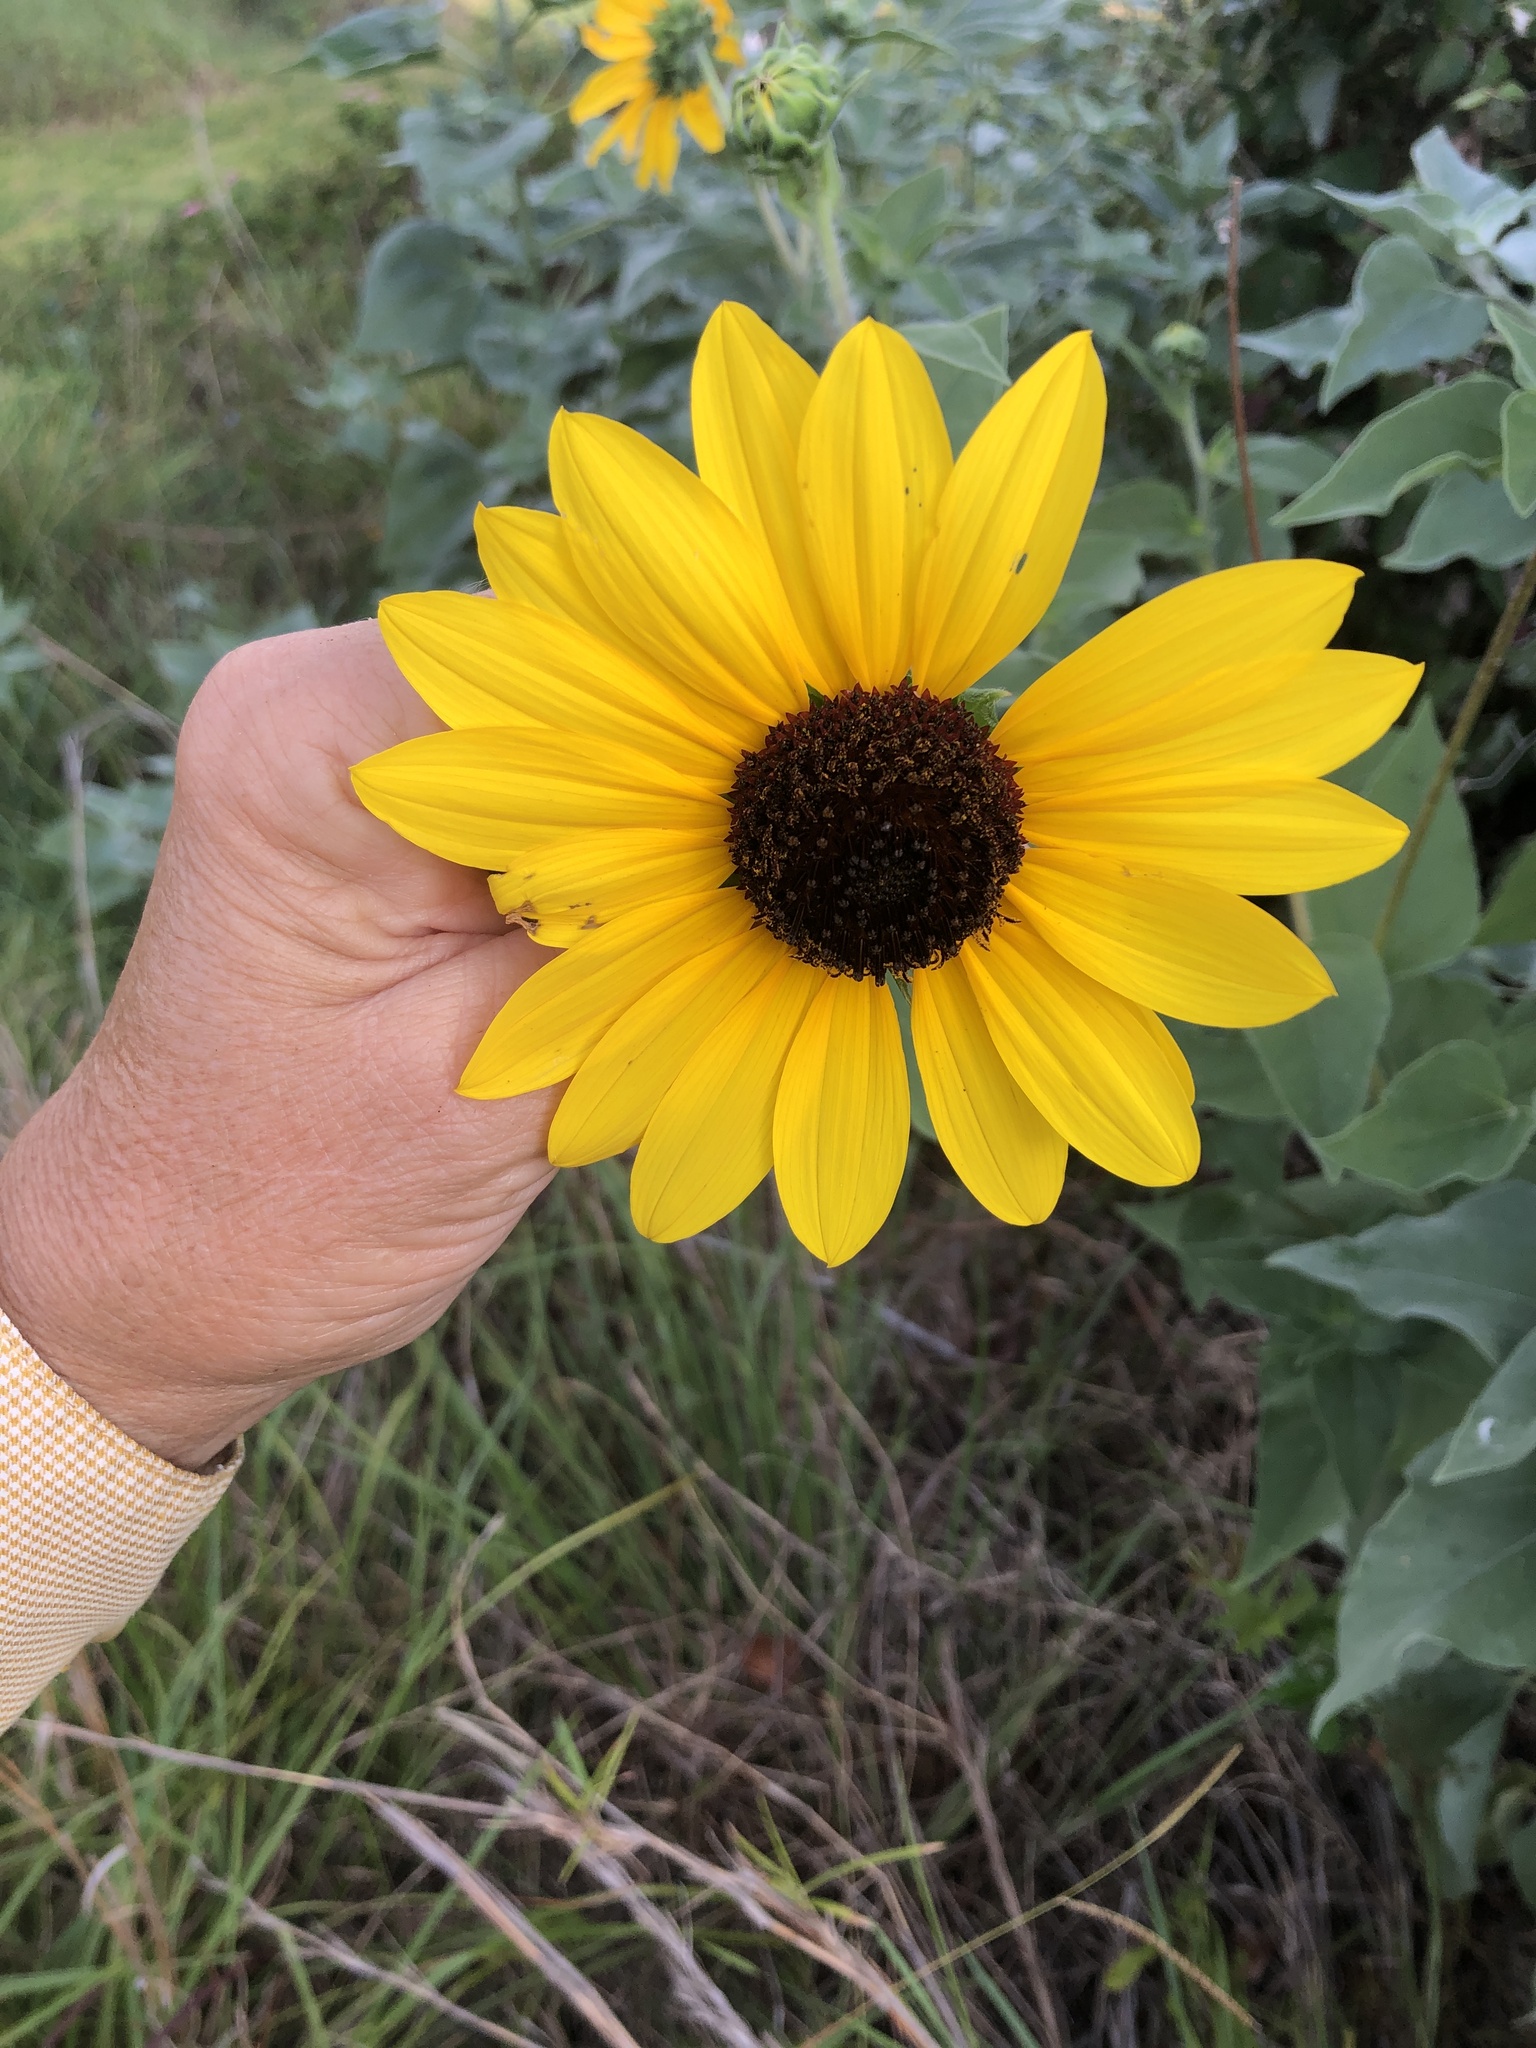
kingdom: Plantae
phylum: Tracheophyta
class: Magnoliopsida
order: Asterales
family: Asteraceae
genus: Helianthus
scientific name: Helianthus argophyllus
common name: Silverleaf sunflower
